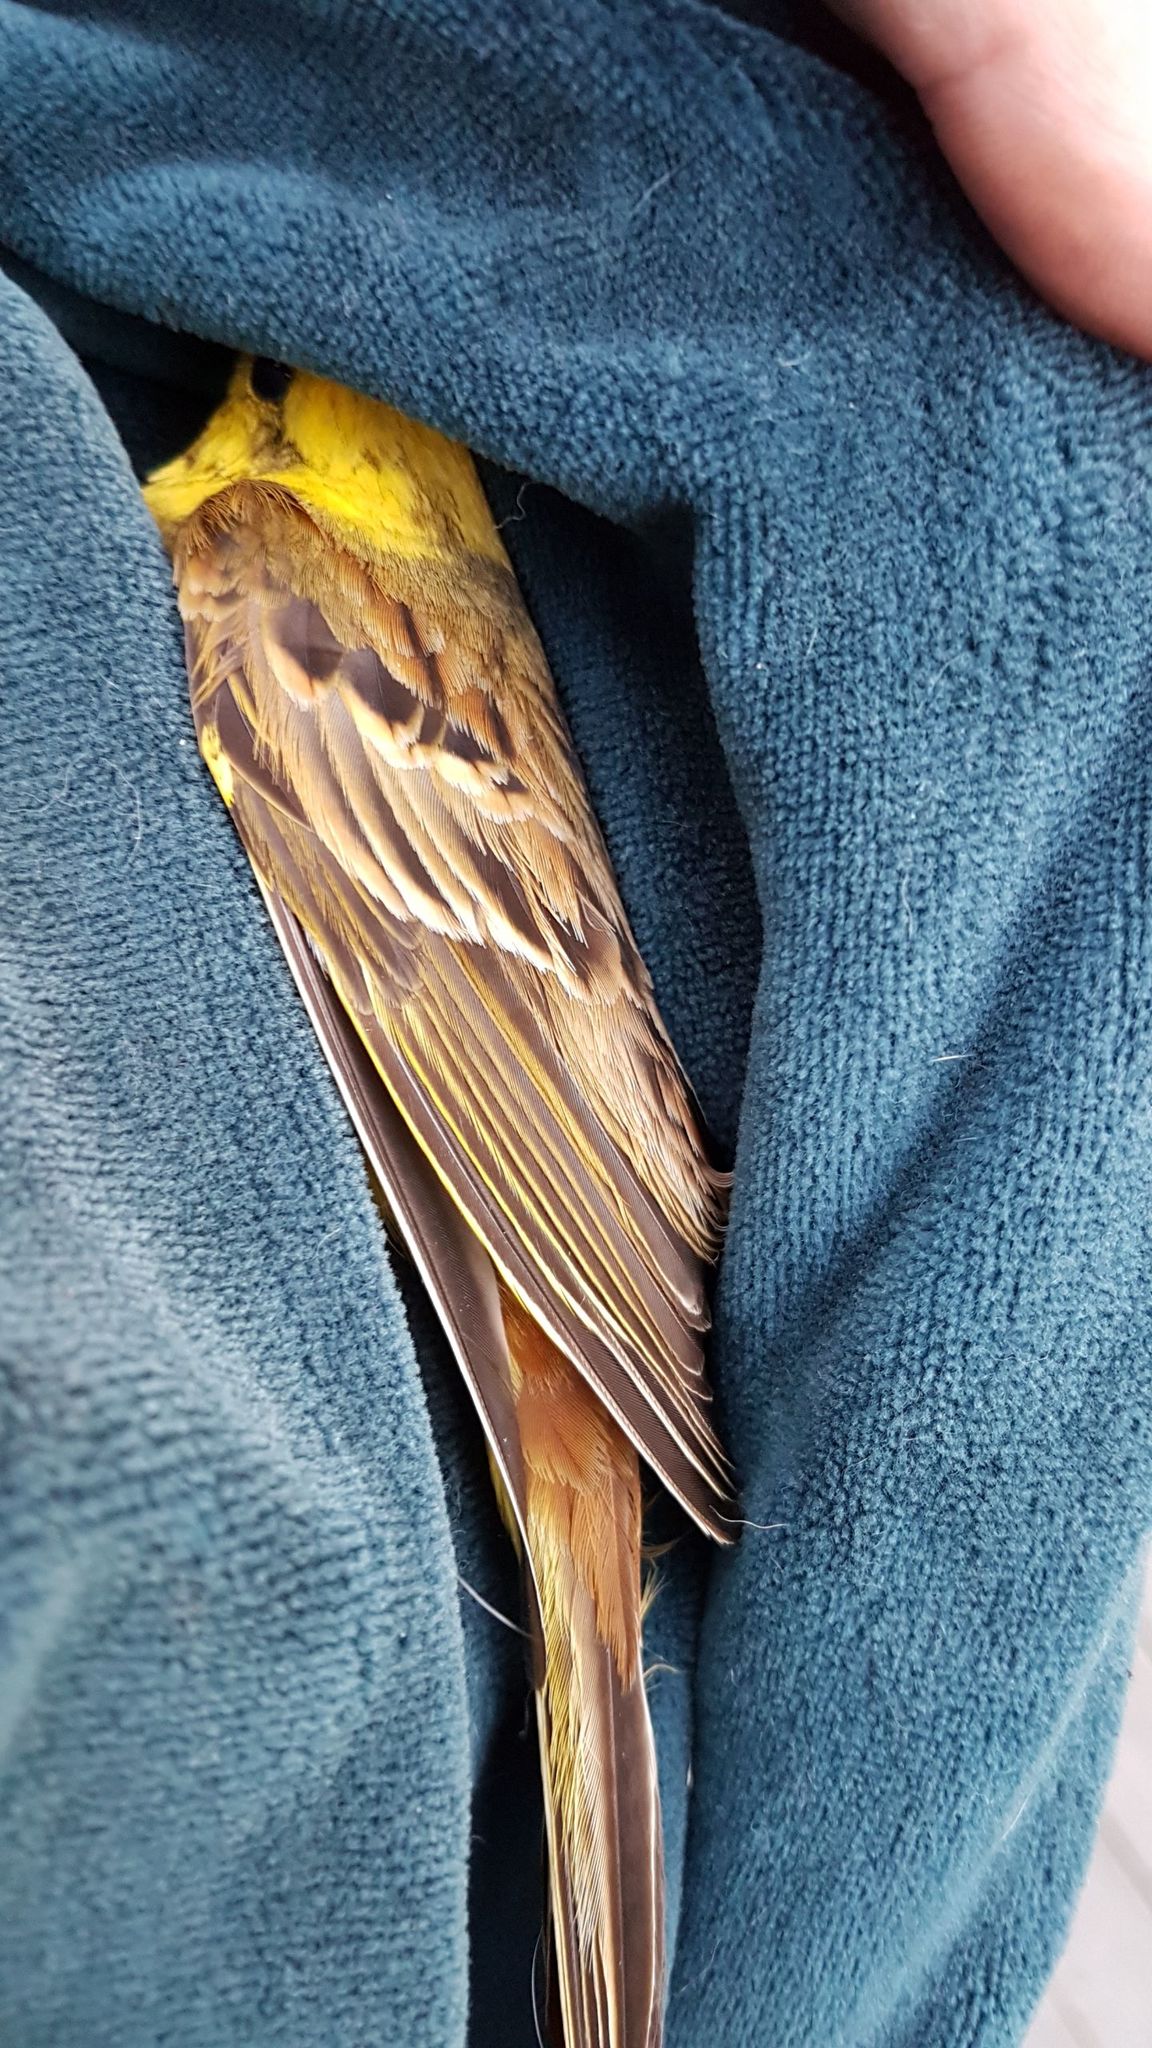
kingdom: Animalia
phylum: Chordata
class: Aves
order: Passeriformes
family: Emberizidae
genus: Emberiza
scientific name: Emberiza citrinella
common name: Yellowhammer
